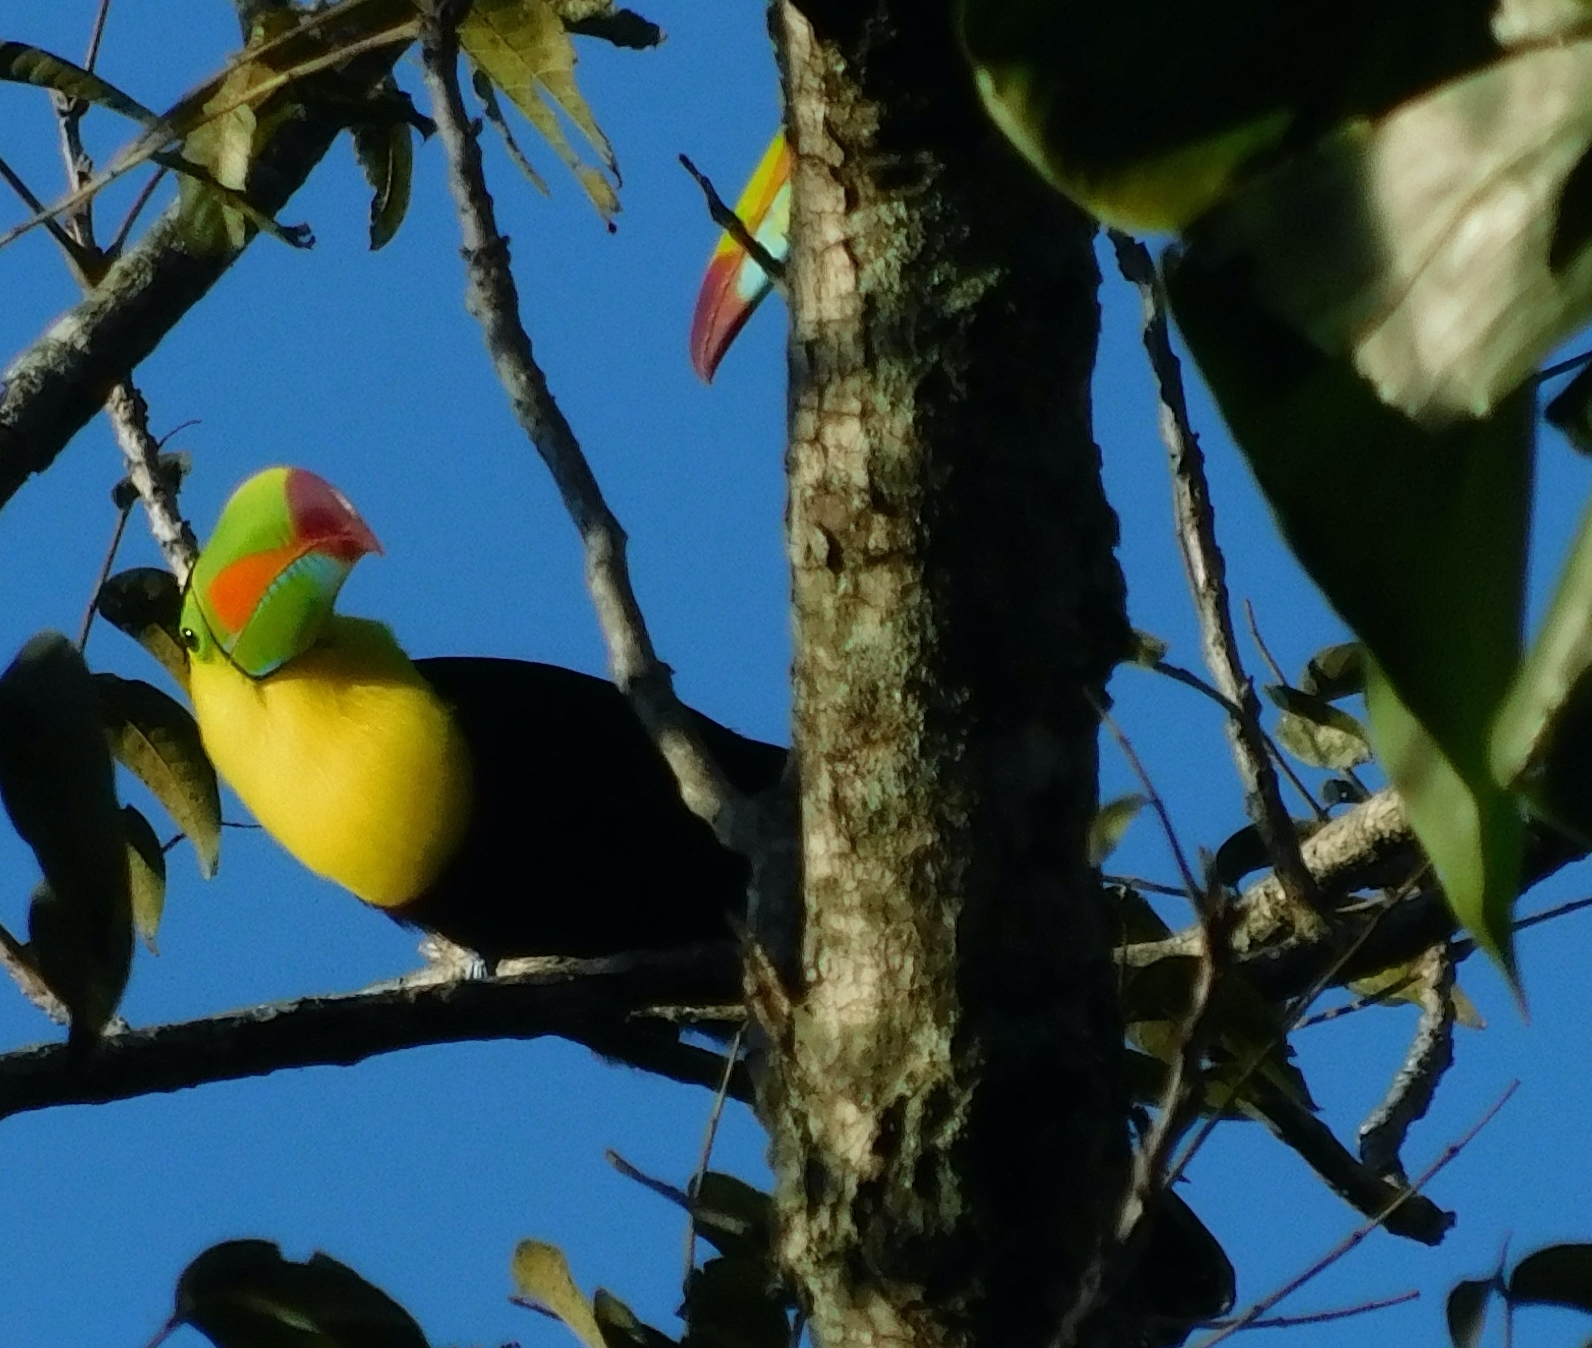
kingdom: Animalia
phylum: Chordata
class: Aves
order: Piciformes
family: Ramphastidae
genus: Ramphastos
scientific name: Ramphastos sulfuratus
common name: Keel-billed toucan
